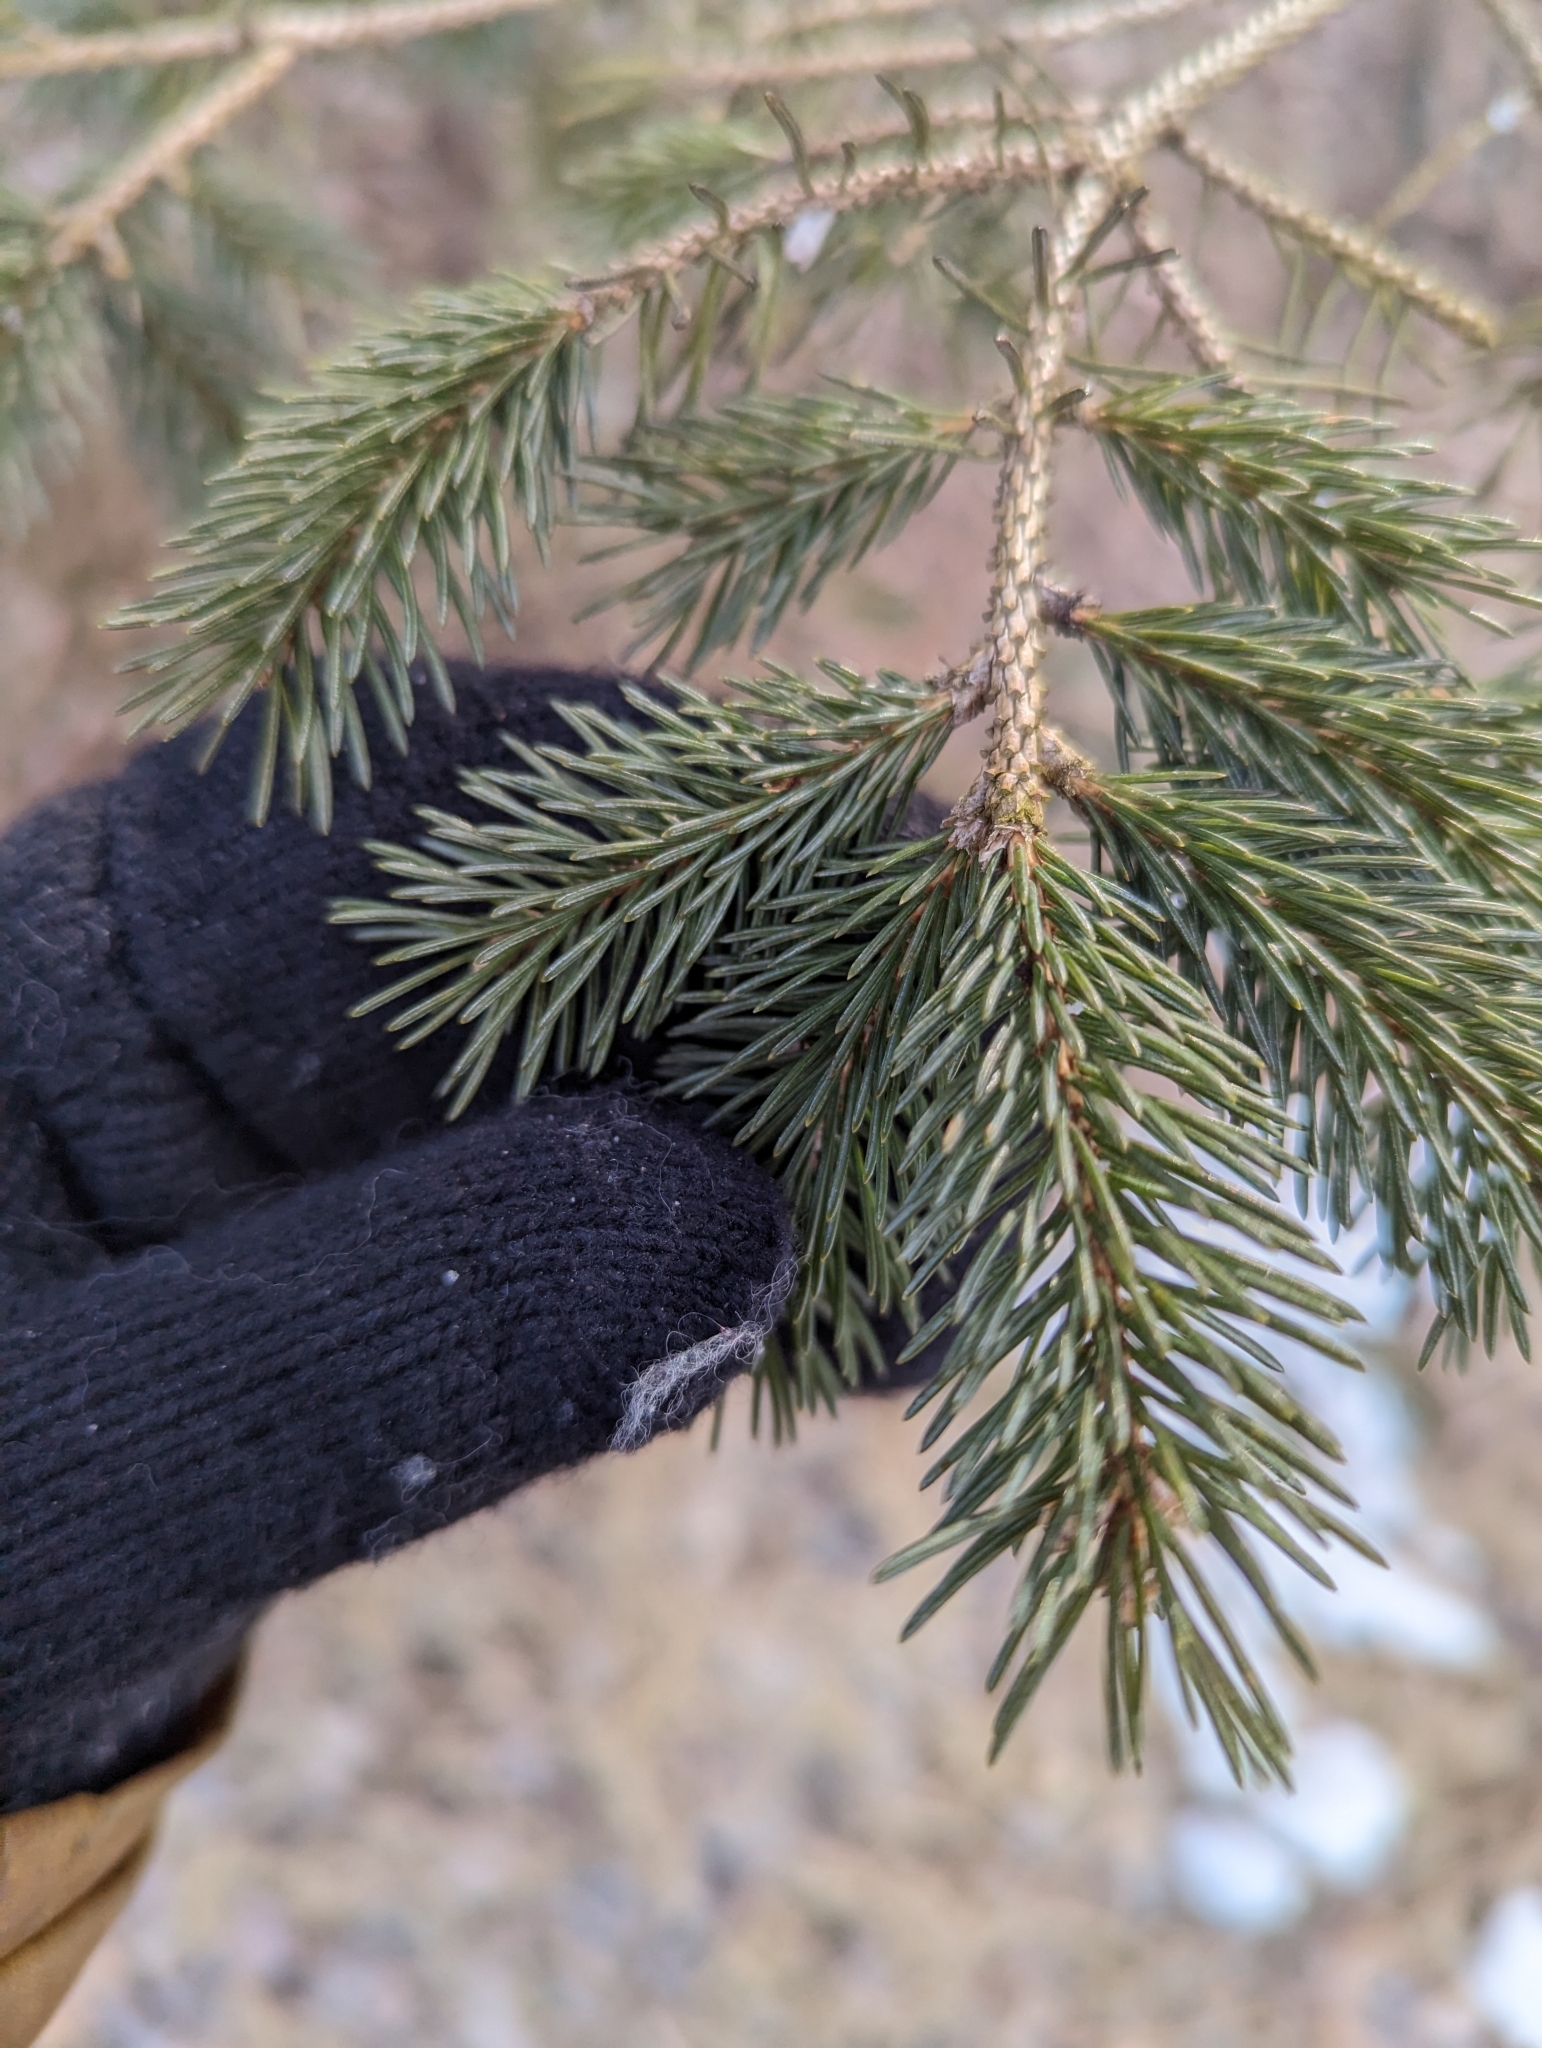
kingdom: Plantae
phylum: Tracheophyta
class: Pinopsida
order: Pinales
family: Pinaceae
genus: Picea
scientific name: Picea glauca
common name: White spruce
